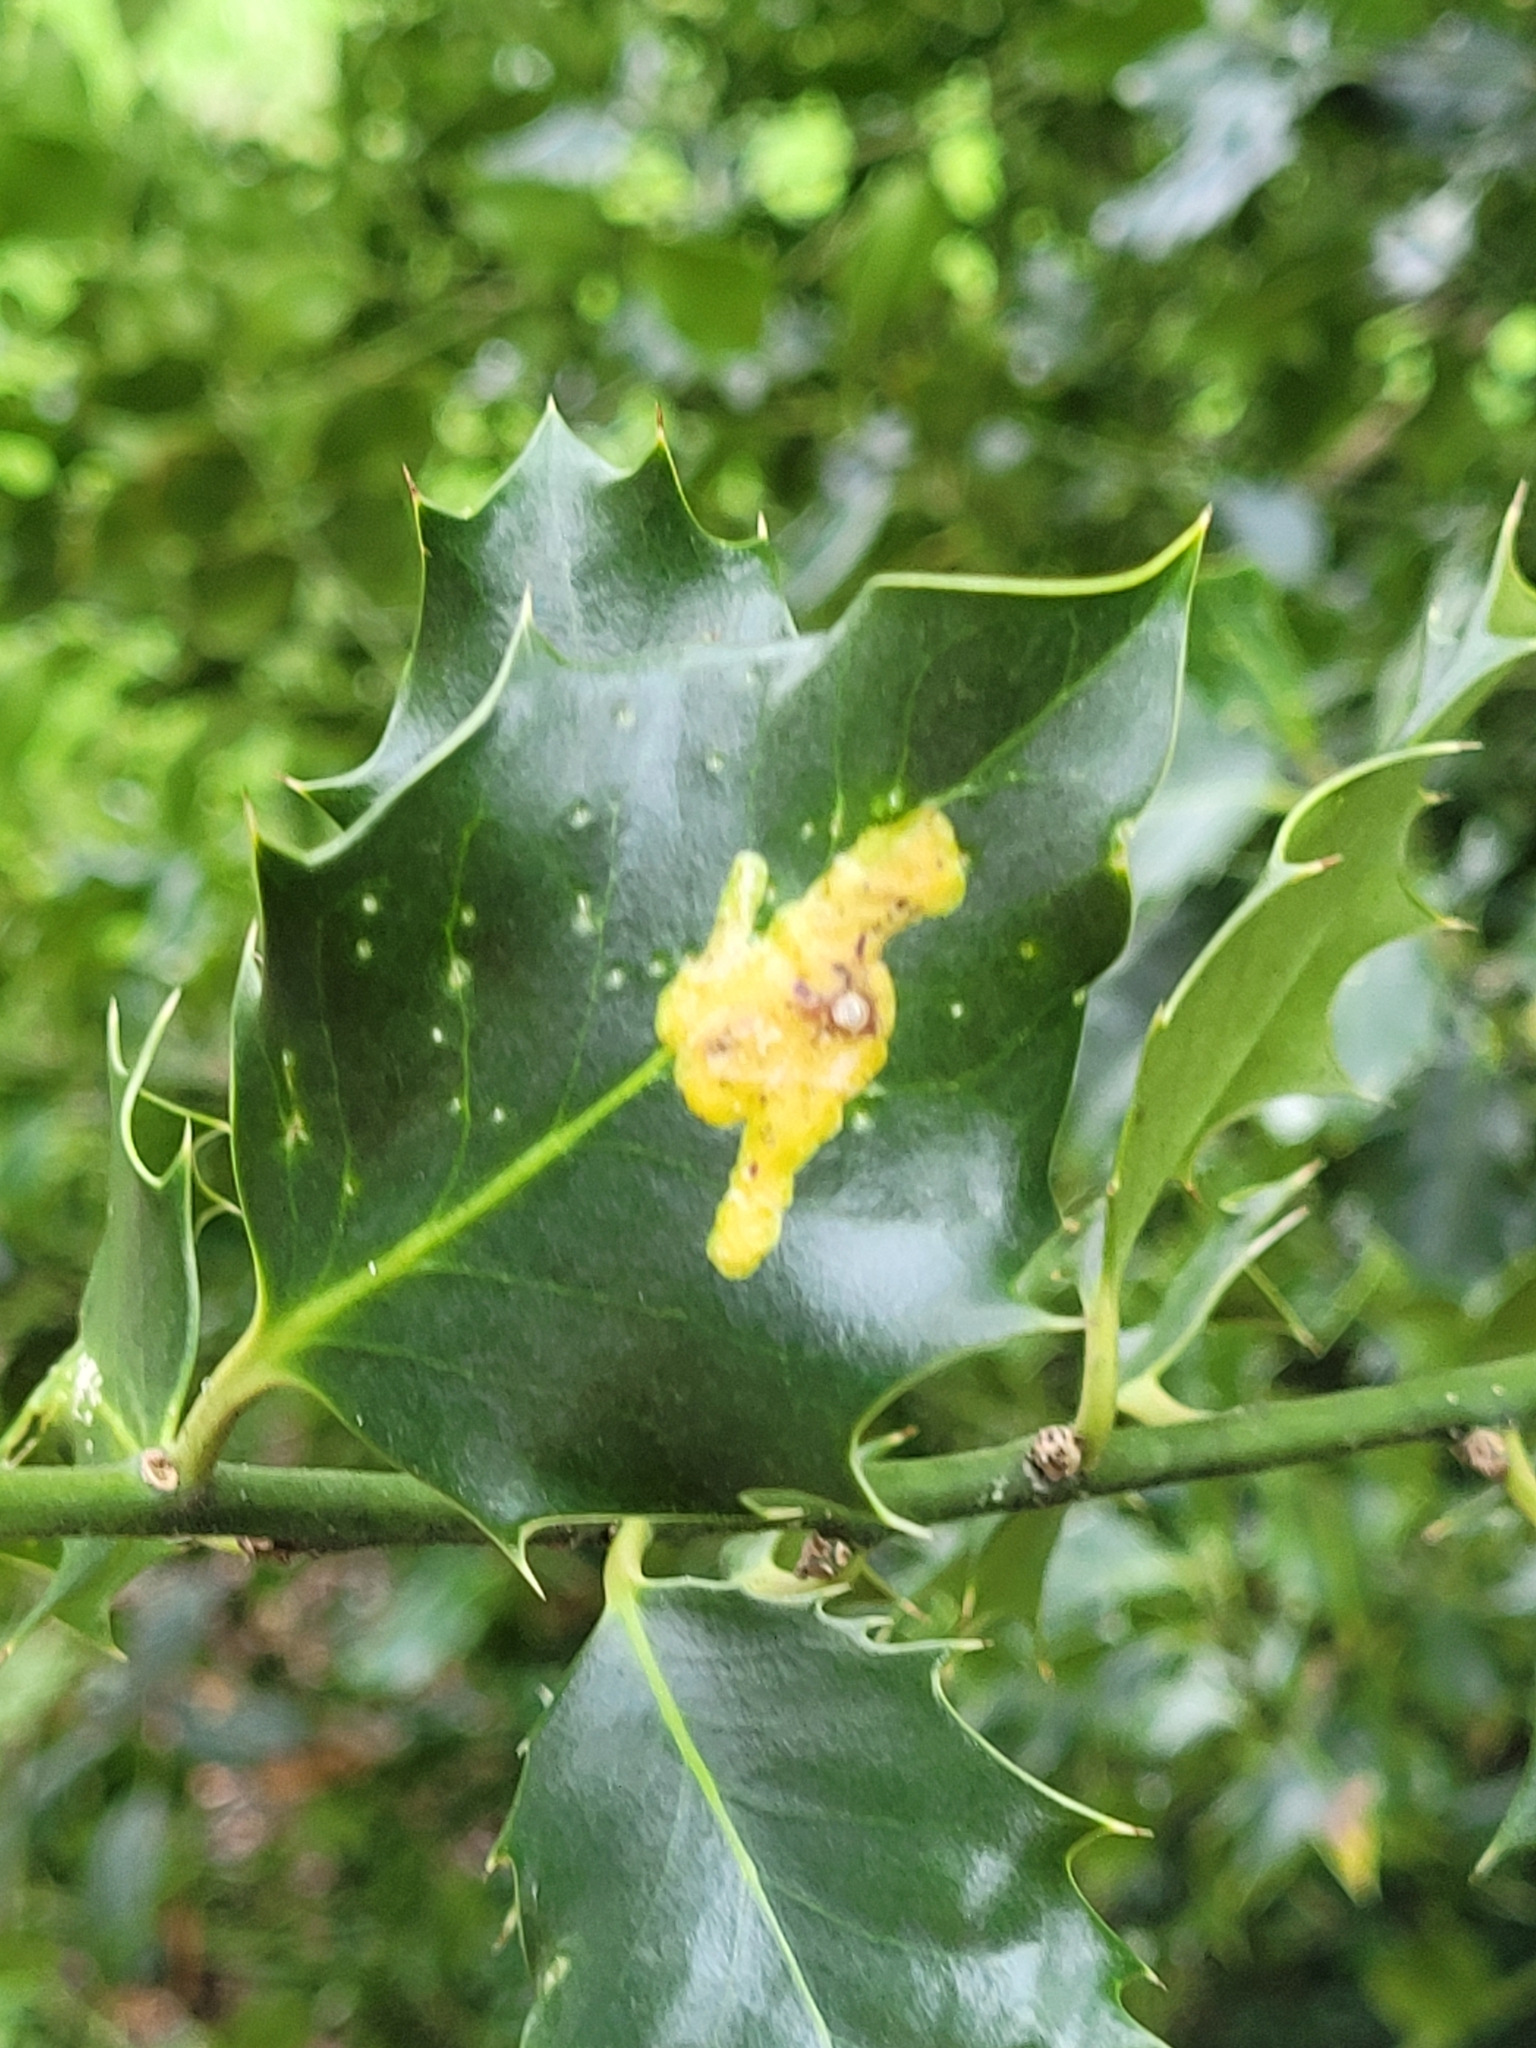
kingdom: Animalia
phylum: Arthropoda
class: Insecta
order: Diptera
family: Agromyzidae
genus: Phytomyza
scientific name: Phytomyza ilicis
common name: Holly leafminer
